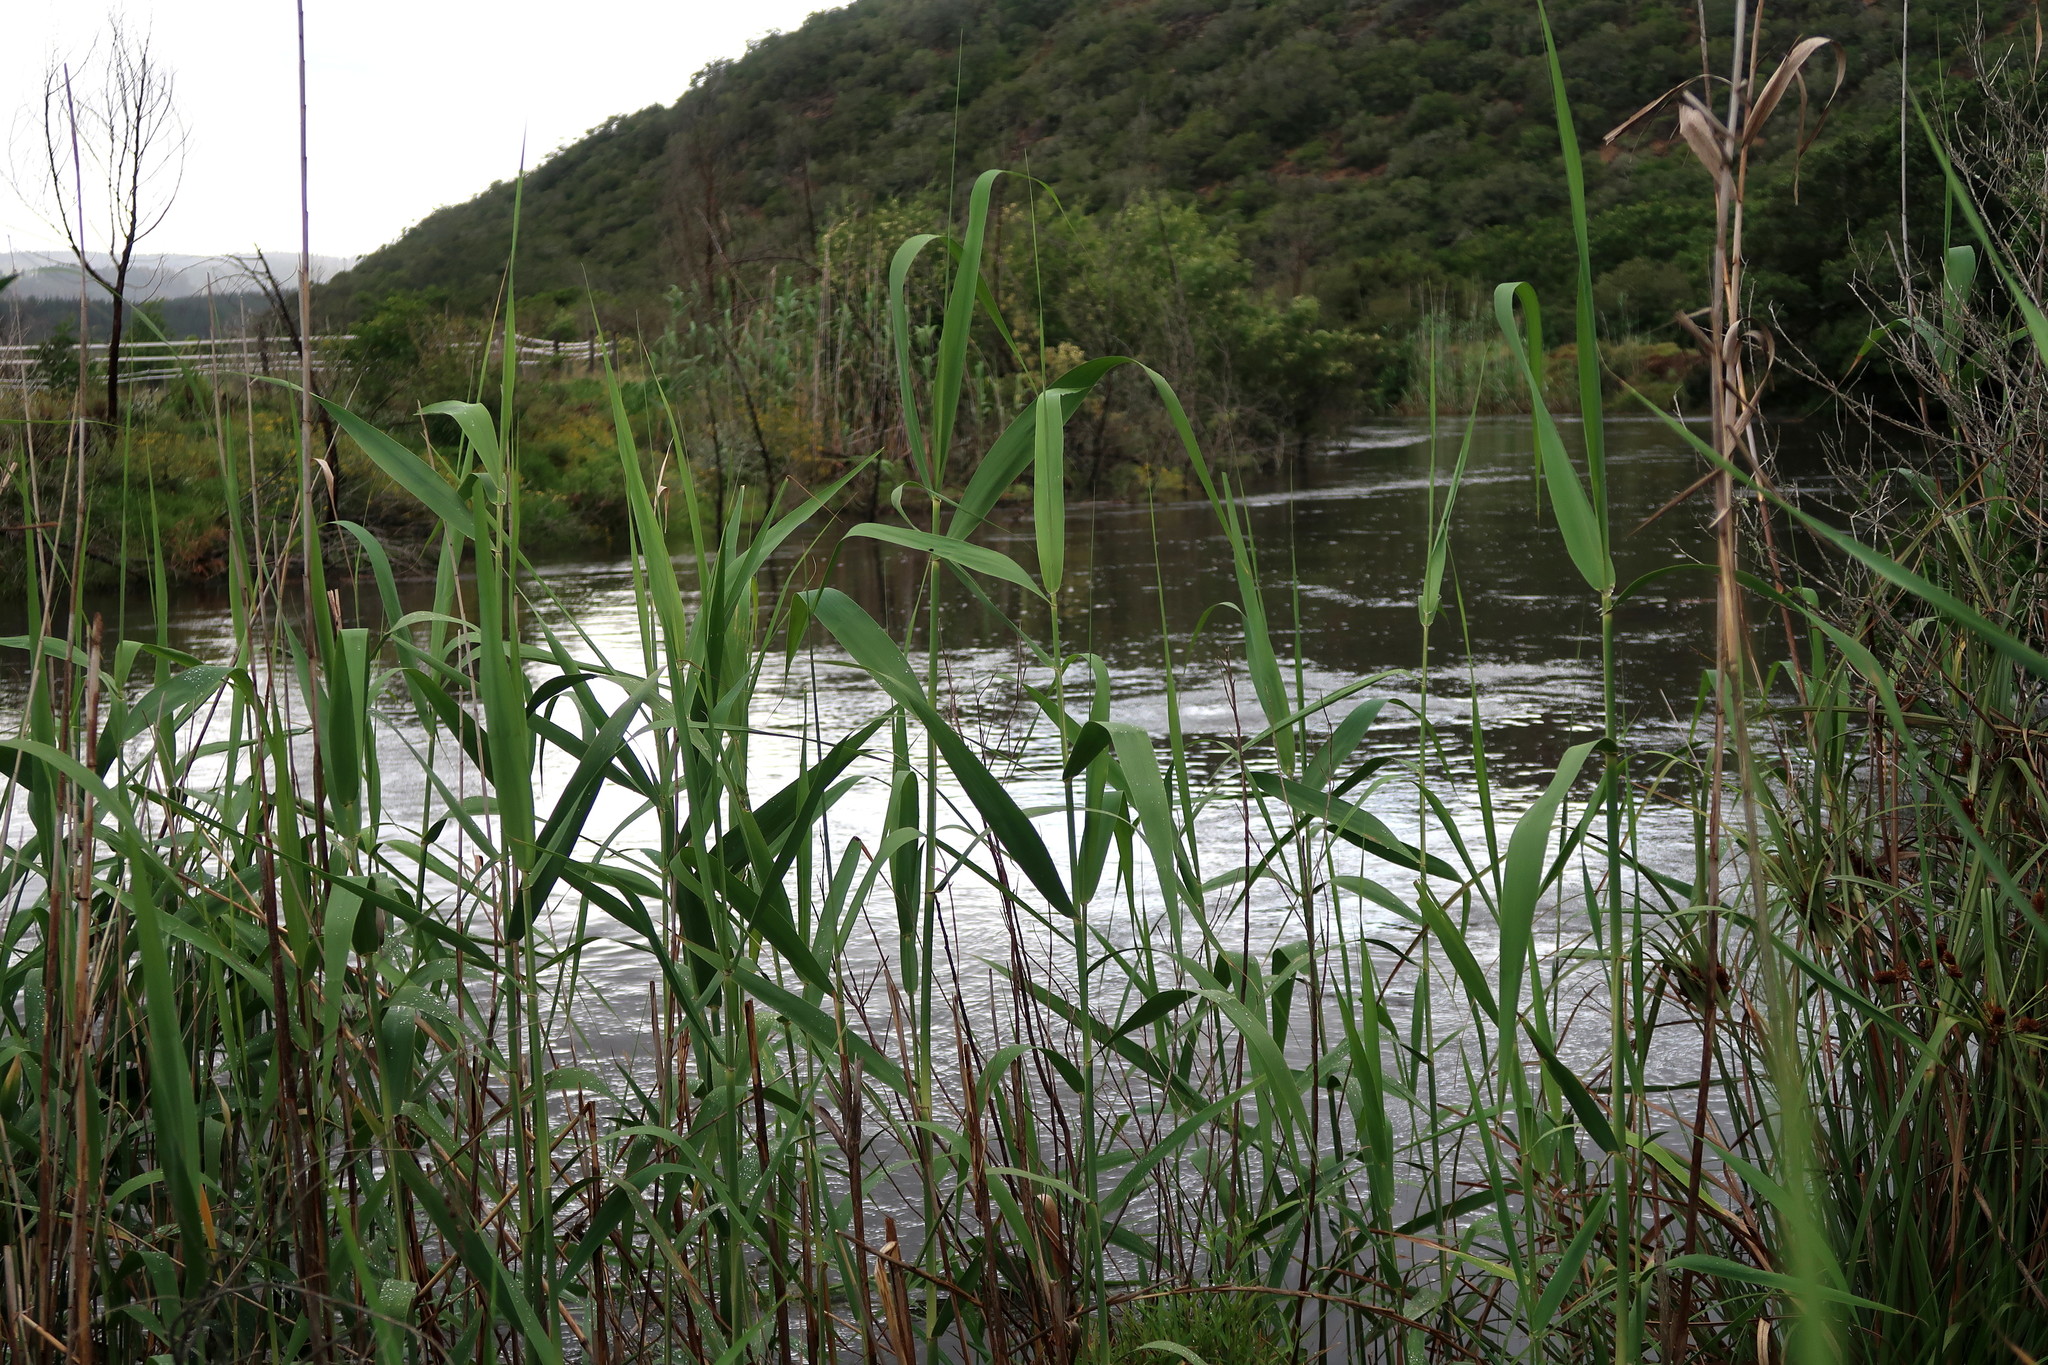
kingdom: Plantae
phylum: Tracheophyta
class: Liliopsida
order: Poales
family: Poaceae
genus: Phragmites
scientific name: Phragmites australis
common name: Common reed
